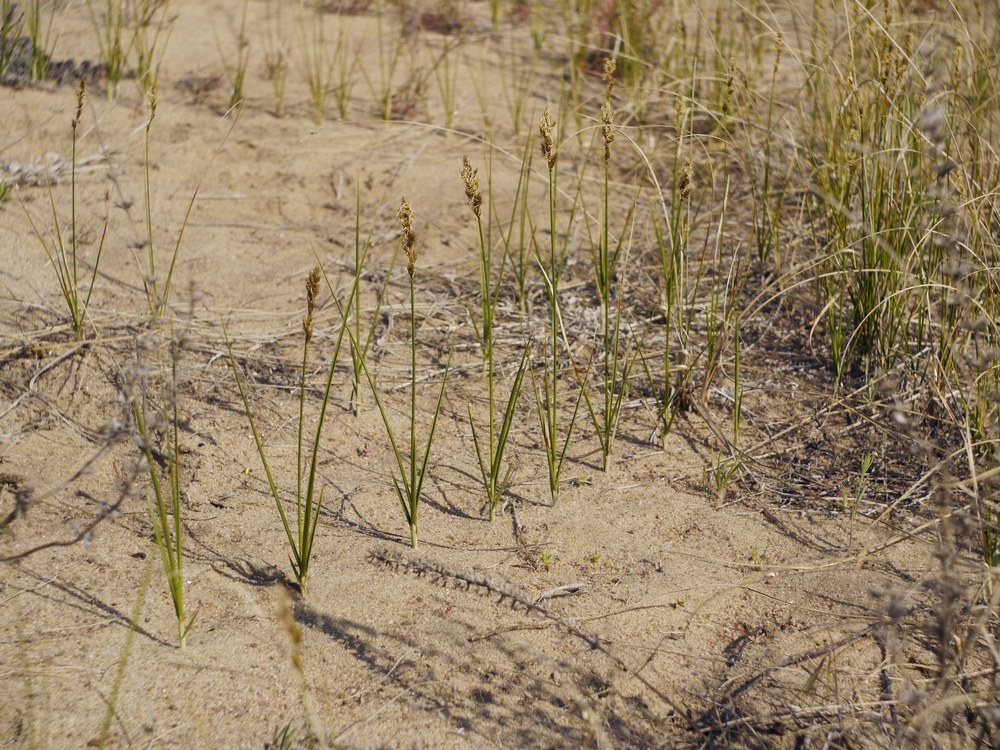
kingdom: Plantae
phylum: Tracheophyta
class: Liliopsida
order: Poales
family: Cyperaceae
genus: Carex
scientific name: Carex colchica
